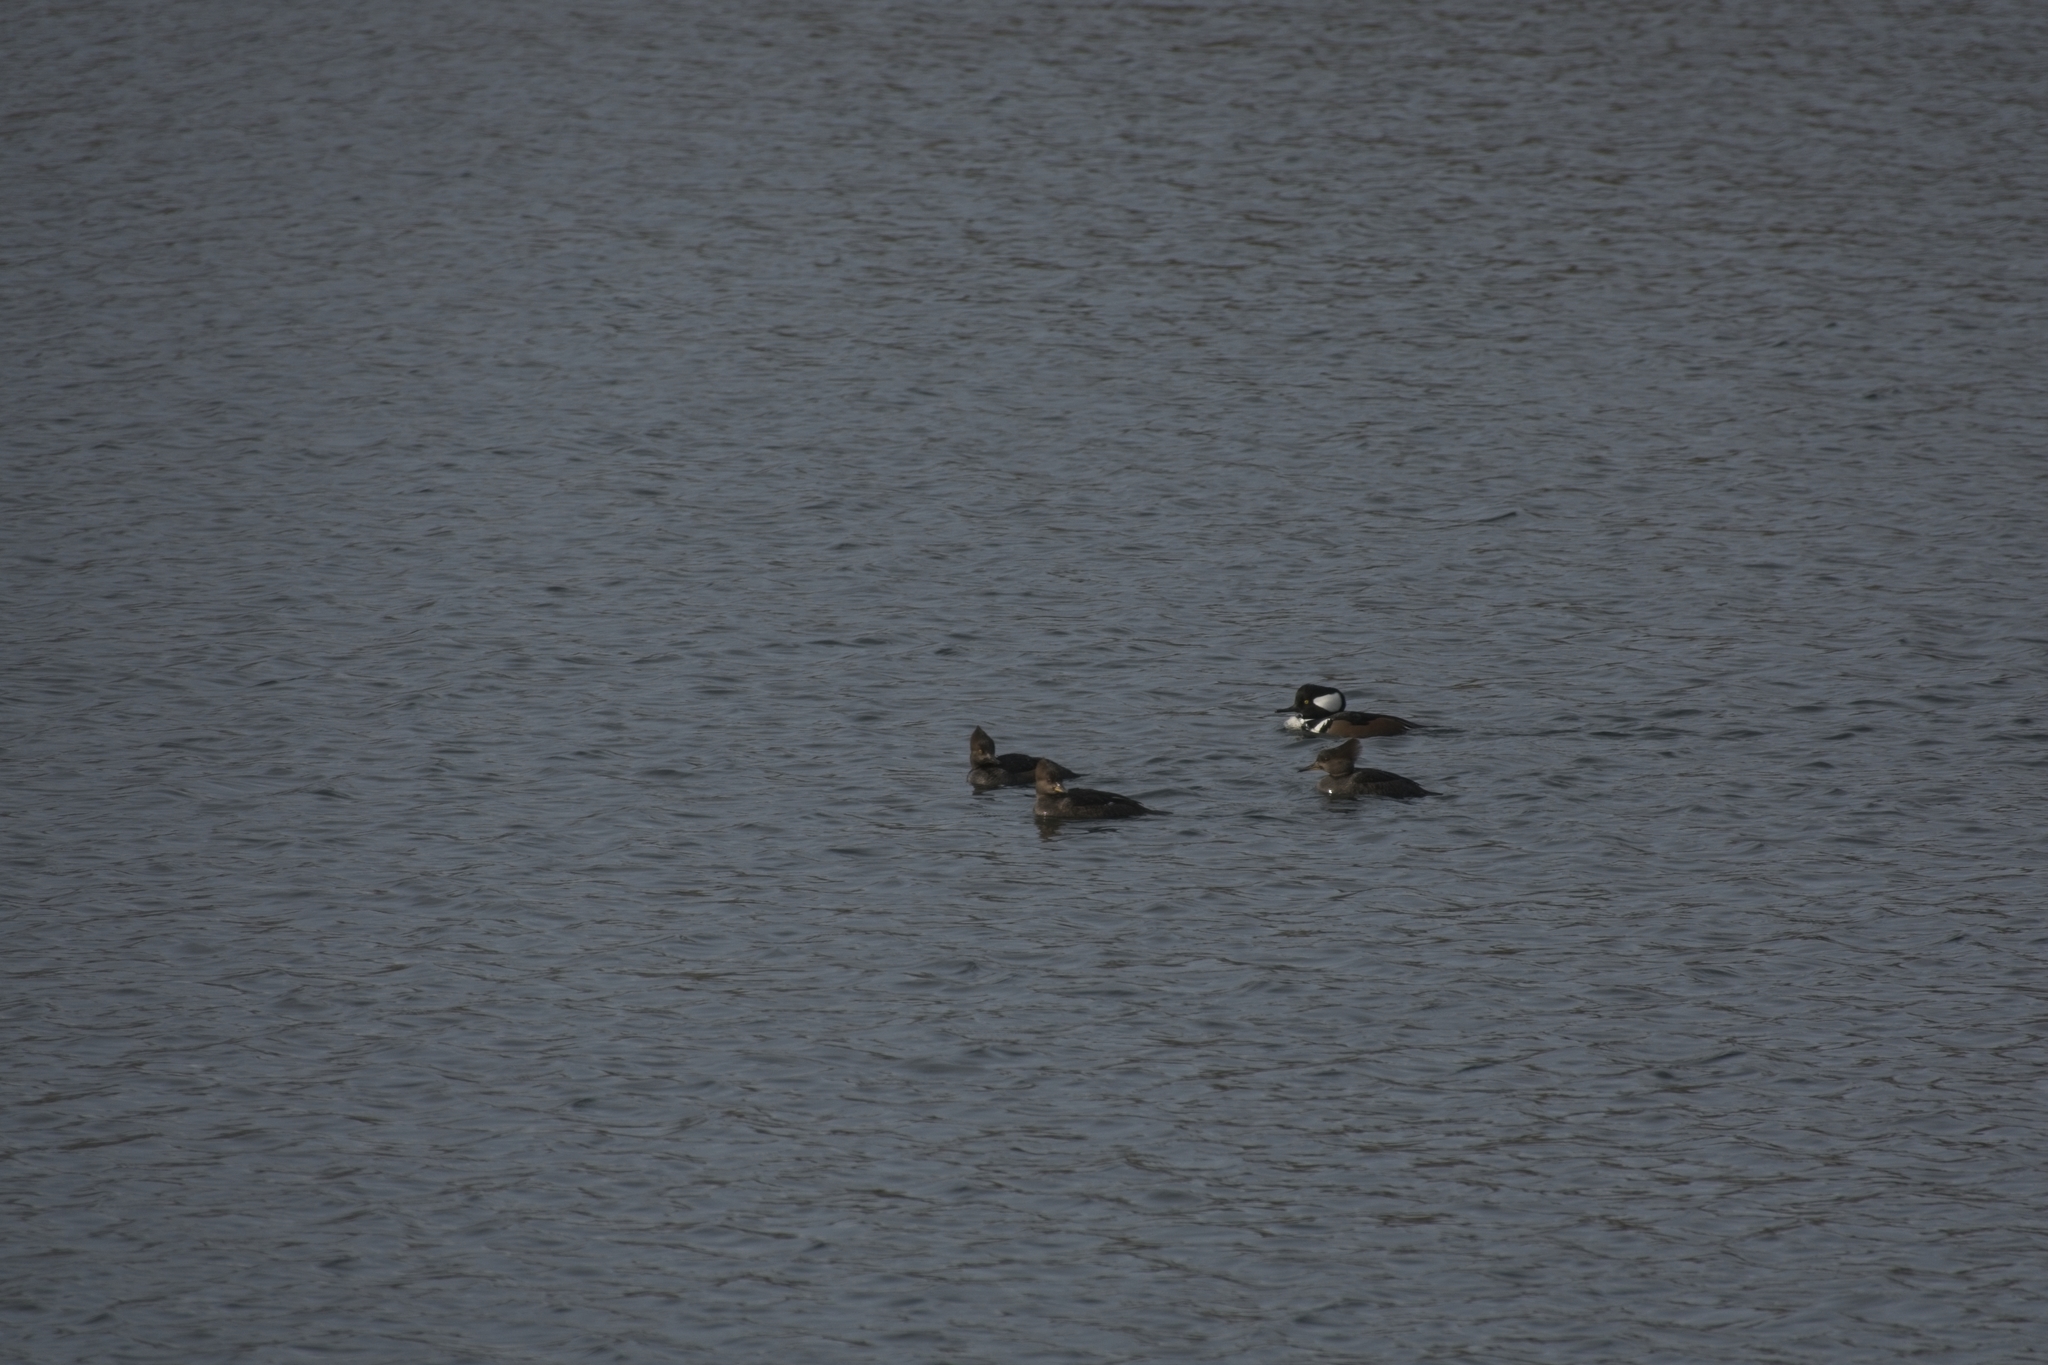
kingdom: Animalia
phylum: Chordata
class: Aves
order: Anseriformes
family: Anatidae
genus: Lophodytes
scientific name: Lophodytes cucullatus
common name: Hooded merganser
